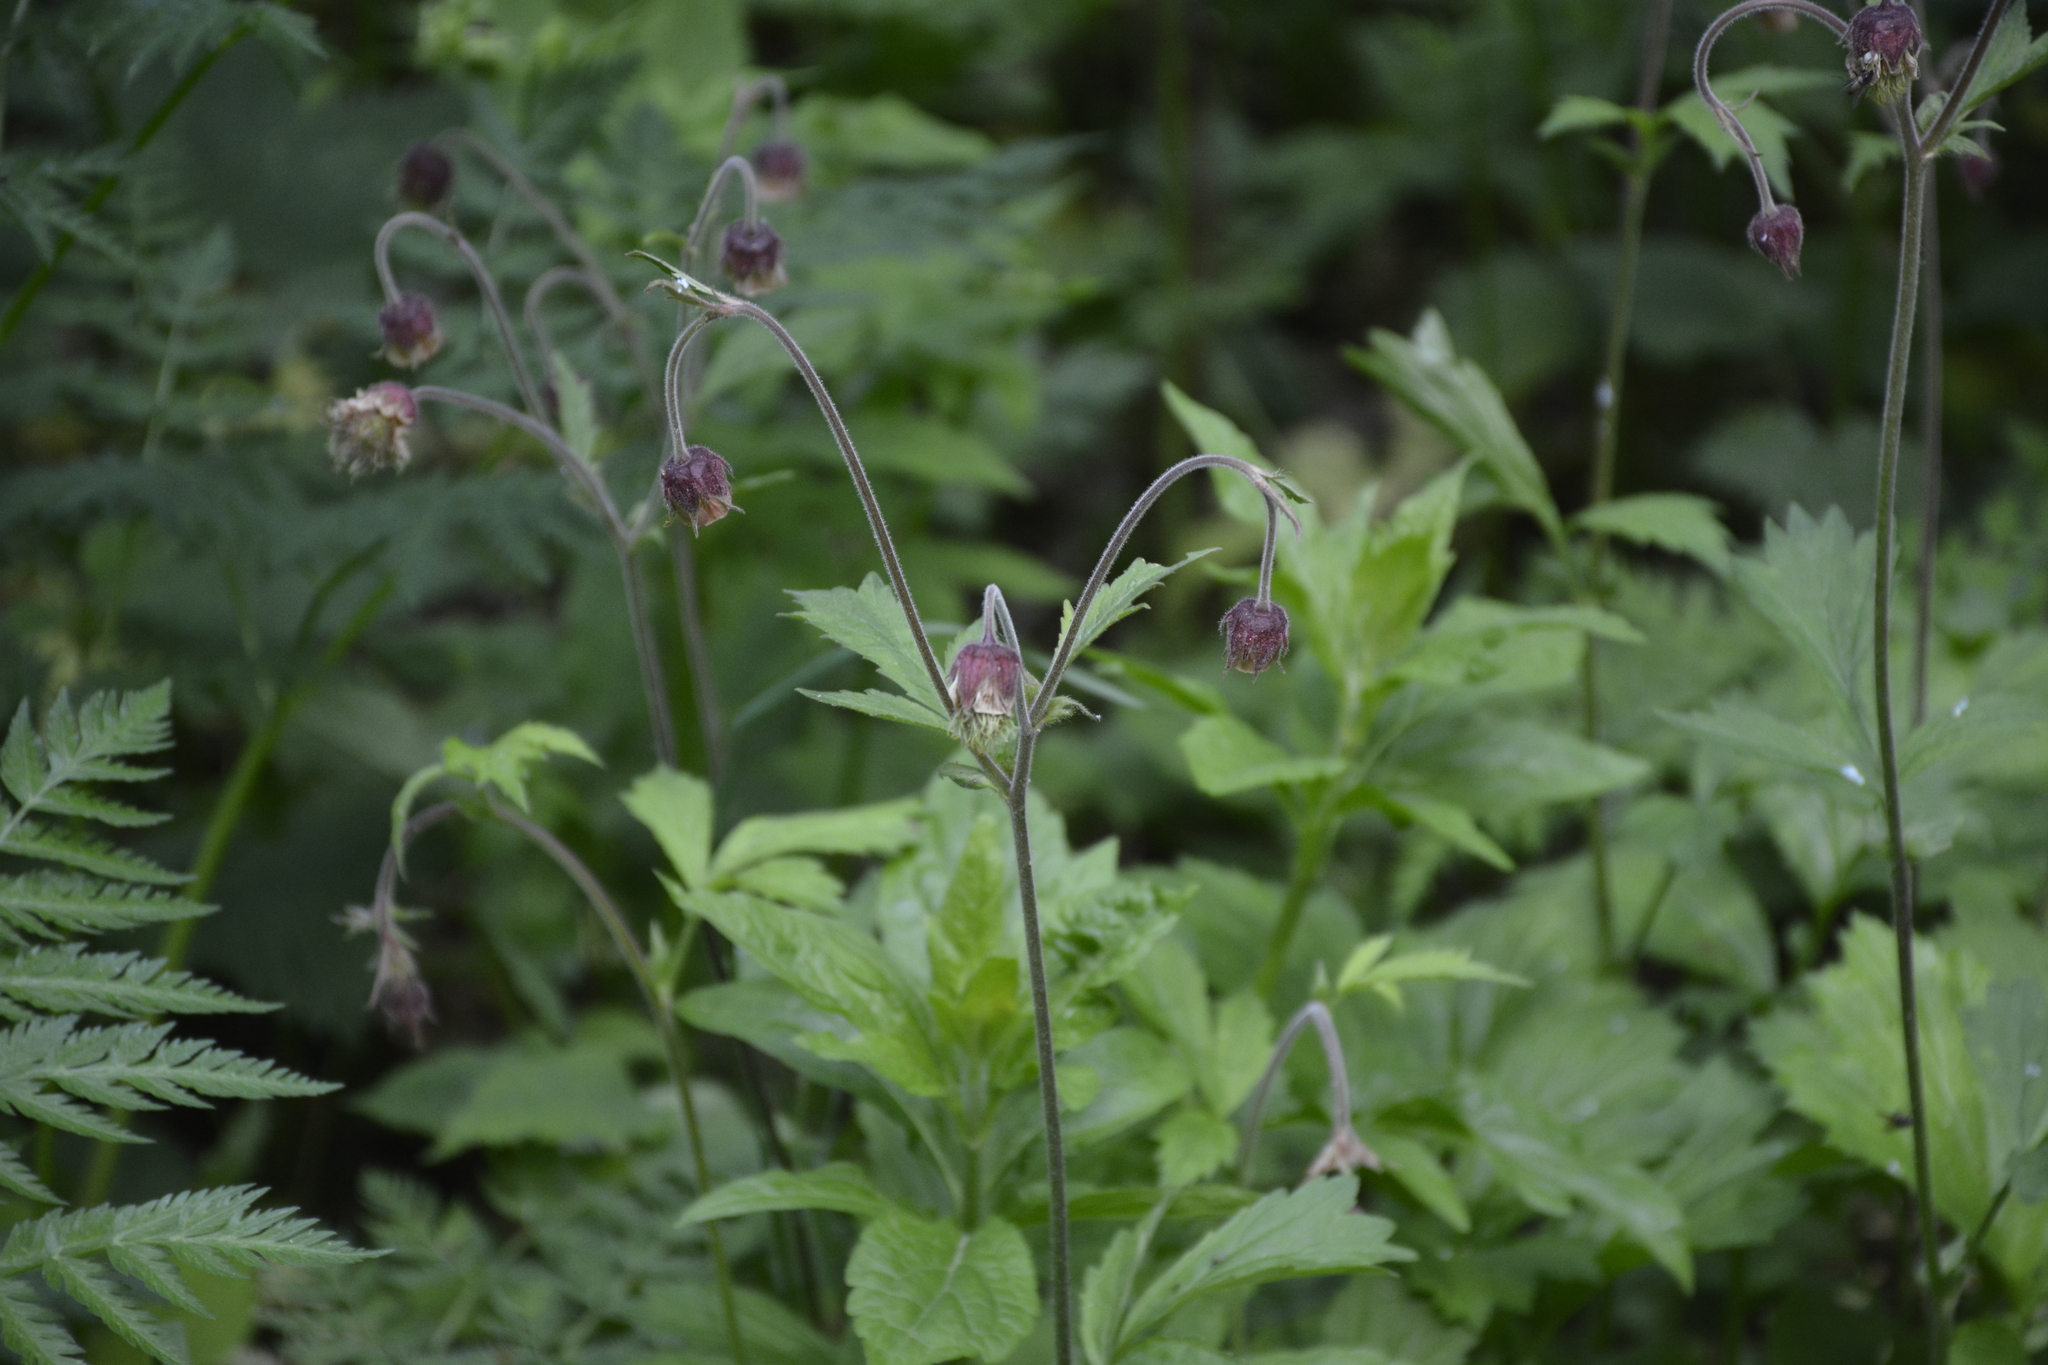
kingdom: Plantae
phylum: Tracheophyta
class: Magnoliopsida
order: Rosales
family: Rosaceae
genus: Geum
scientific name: Geum rivale
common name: Water avens
